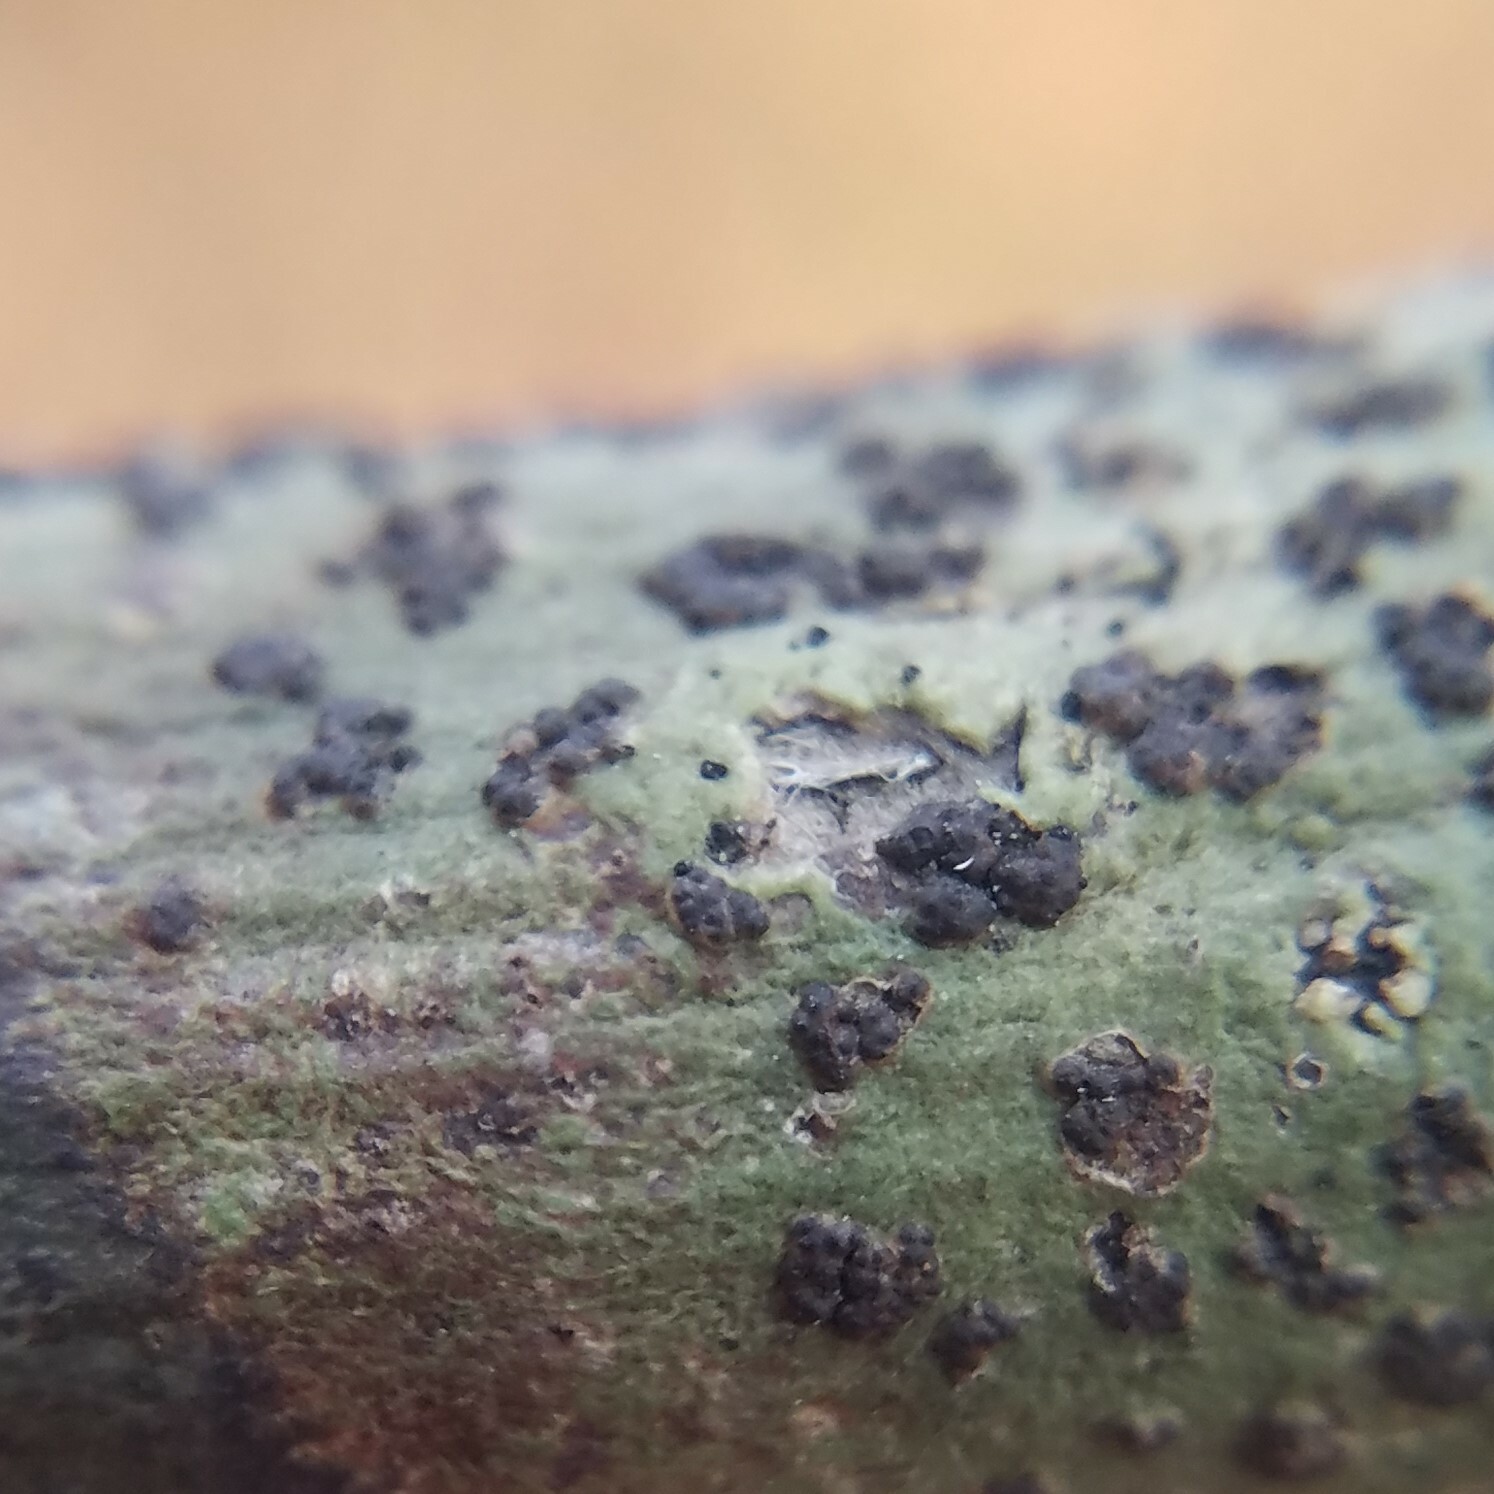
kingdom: Fungi
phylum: Ascomycota
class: Dothideomycetes
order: Dothideales
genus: Buelliella
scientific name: Buelliella trypethelii
